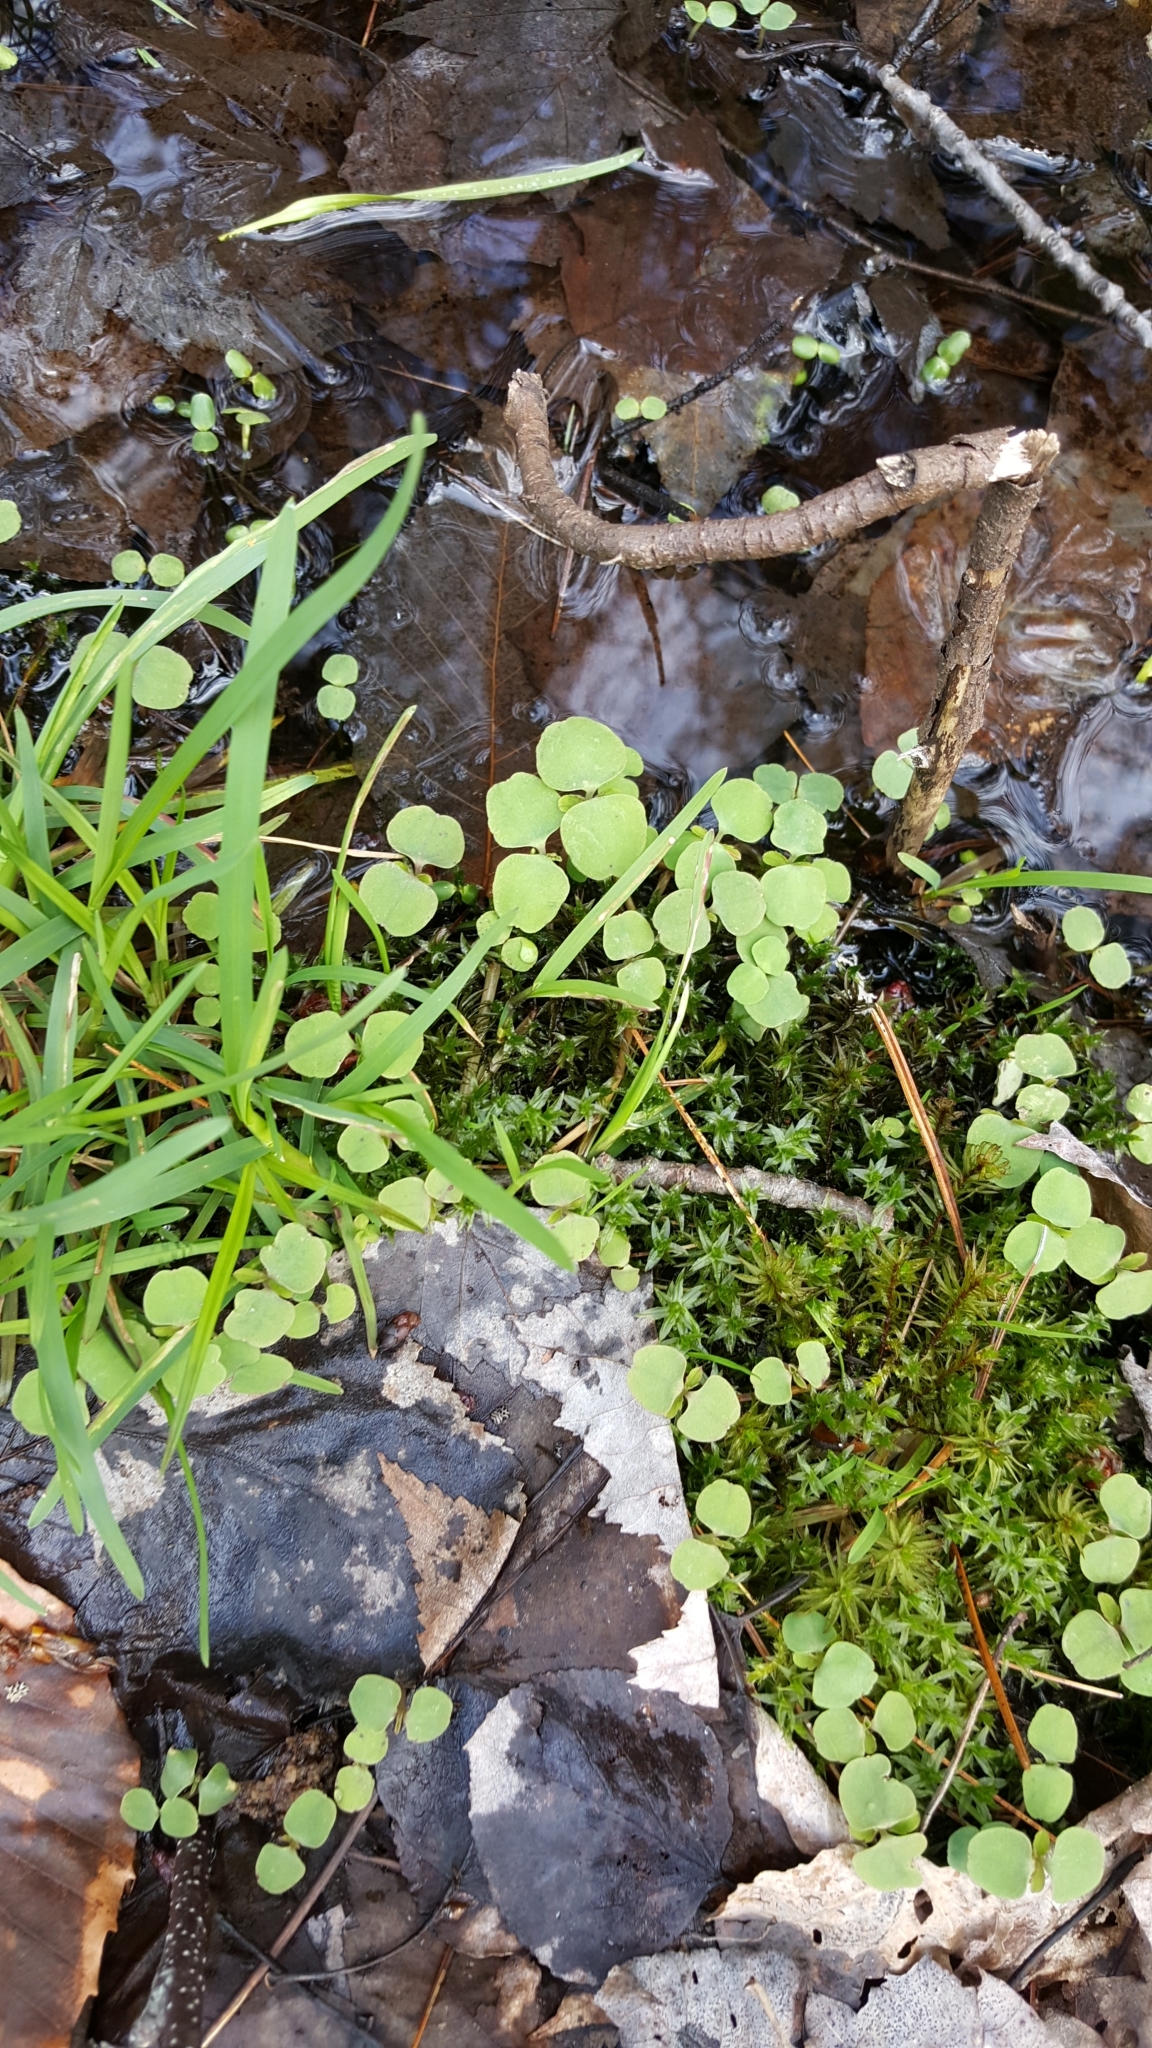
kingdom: Plantae
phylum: Tracheophyta
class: Magnoliopsida
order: Ericales
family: Balsaminaceae
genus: Impatiens
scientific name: Impatiens capensis
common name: Orange balsam
